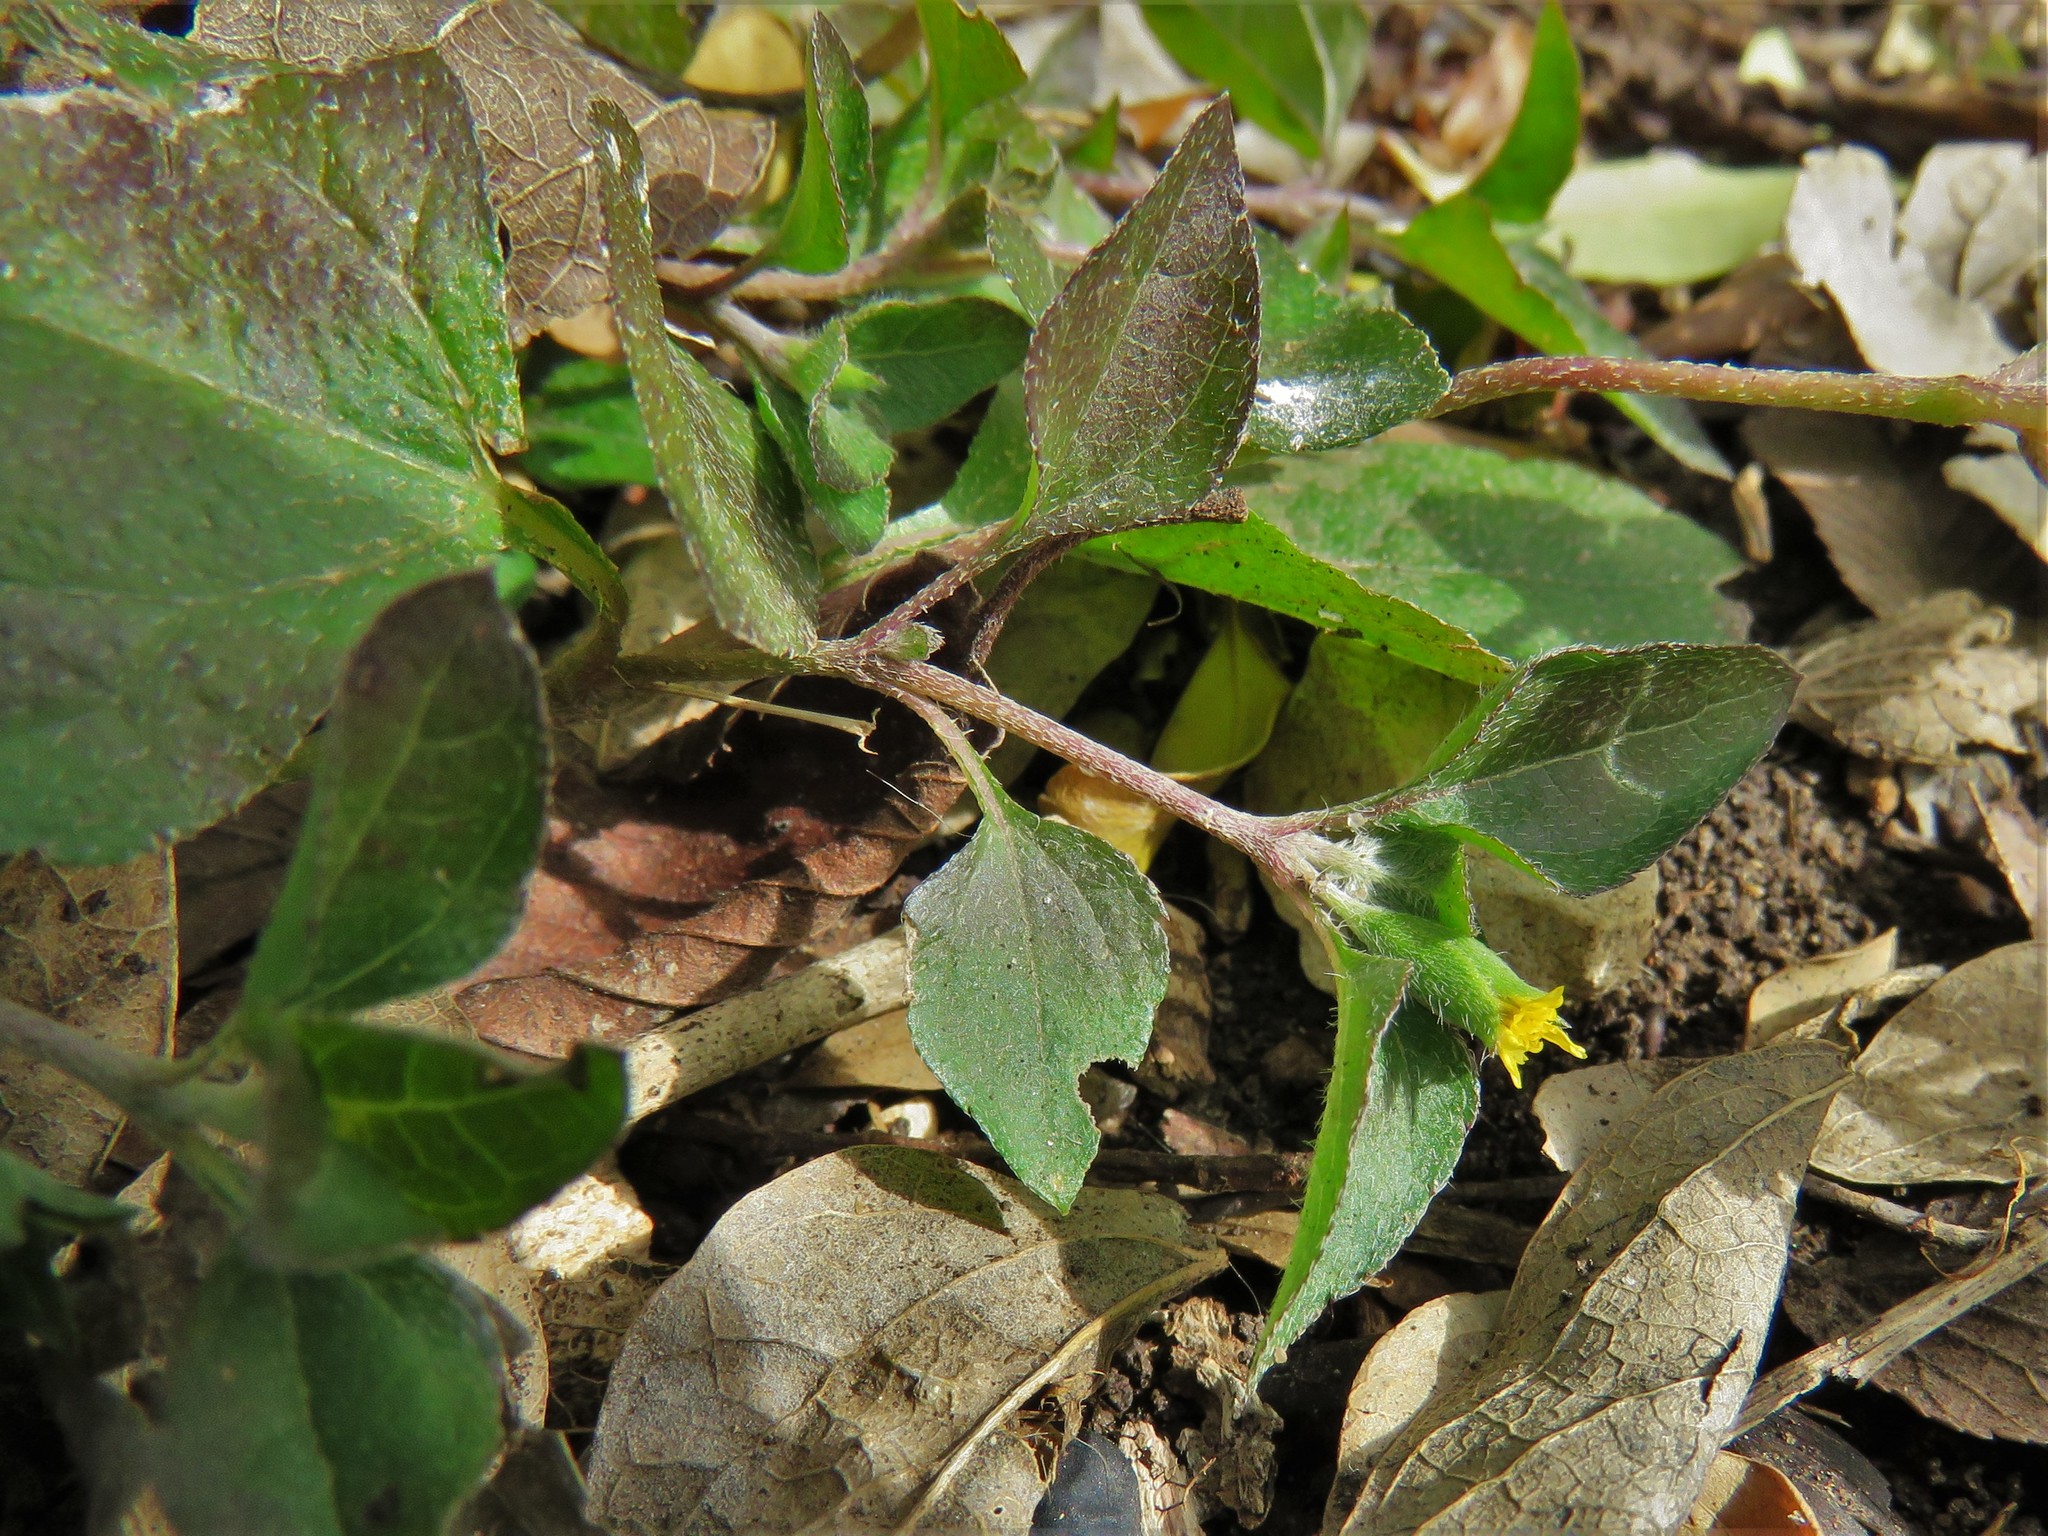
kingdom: Plantae
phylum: Tracheophyta
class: Magnoliopsida
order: Asterales
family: Asteraceae
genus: Calyptocarpus
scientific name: Calyptocarpus vialis
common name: Straggler daisy
